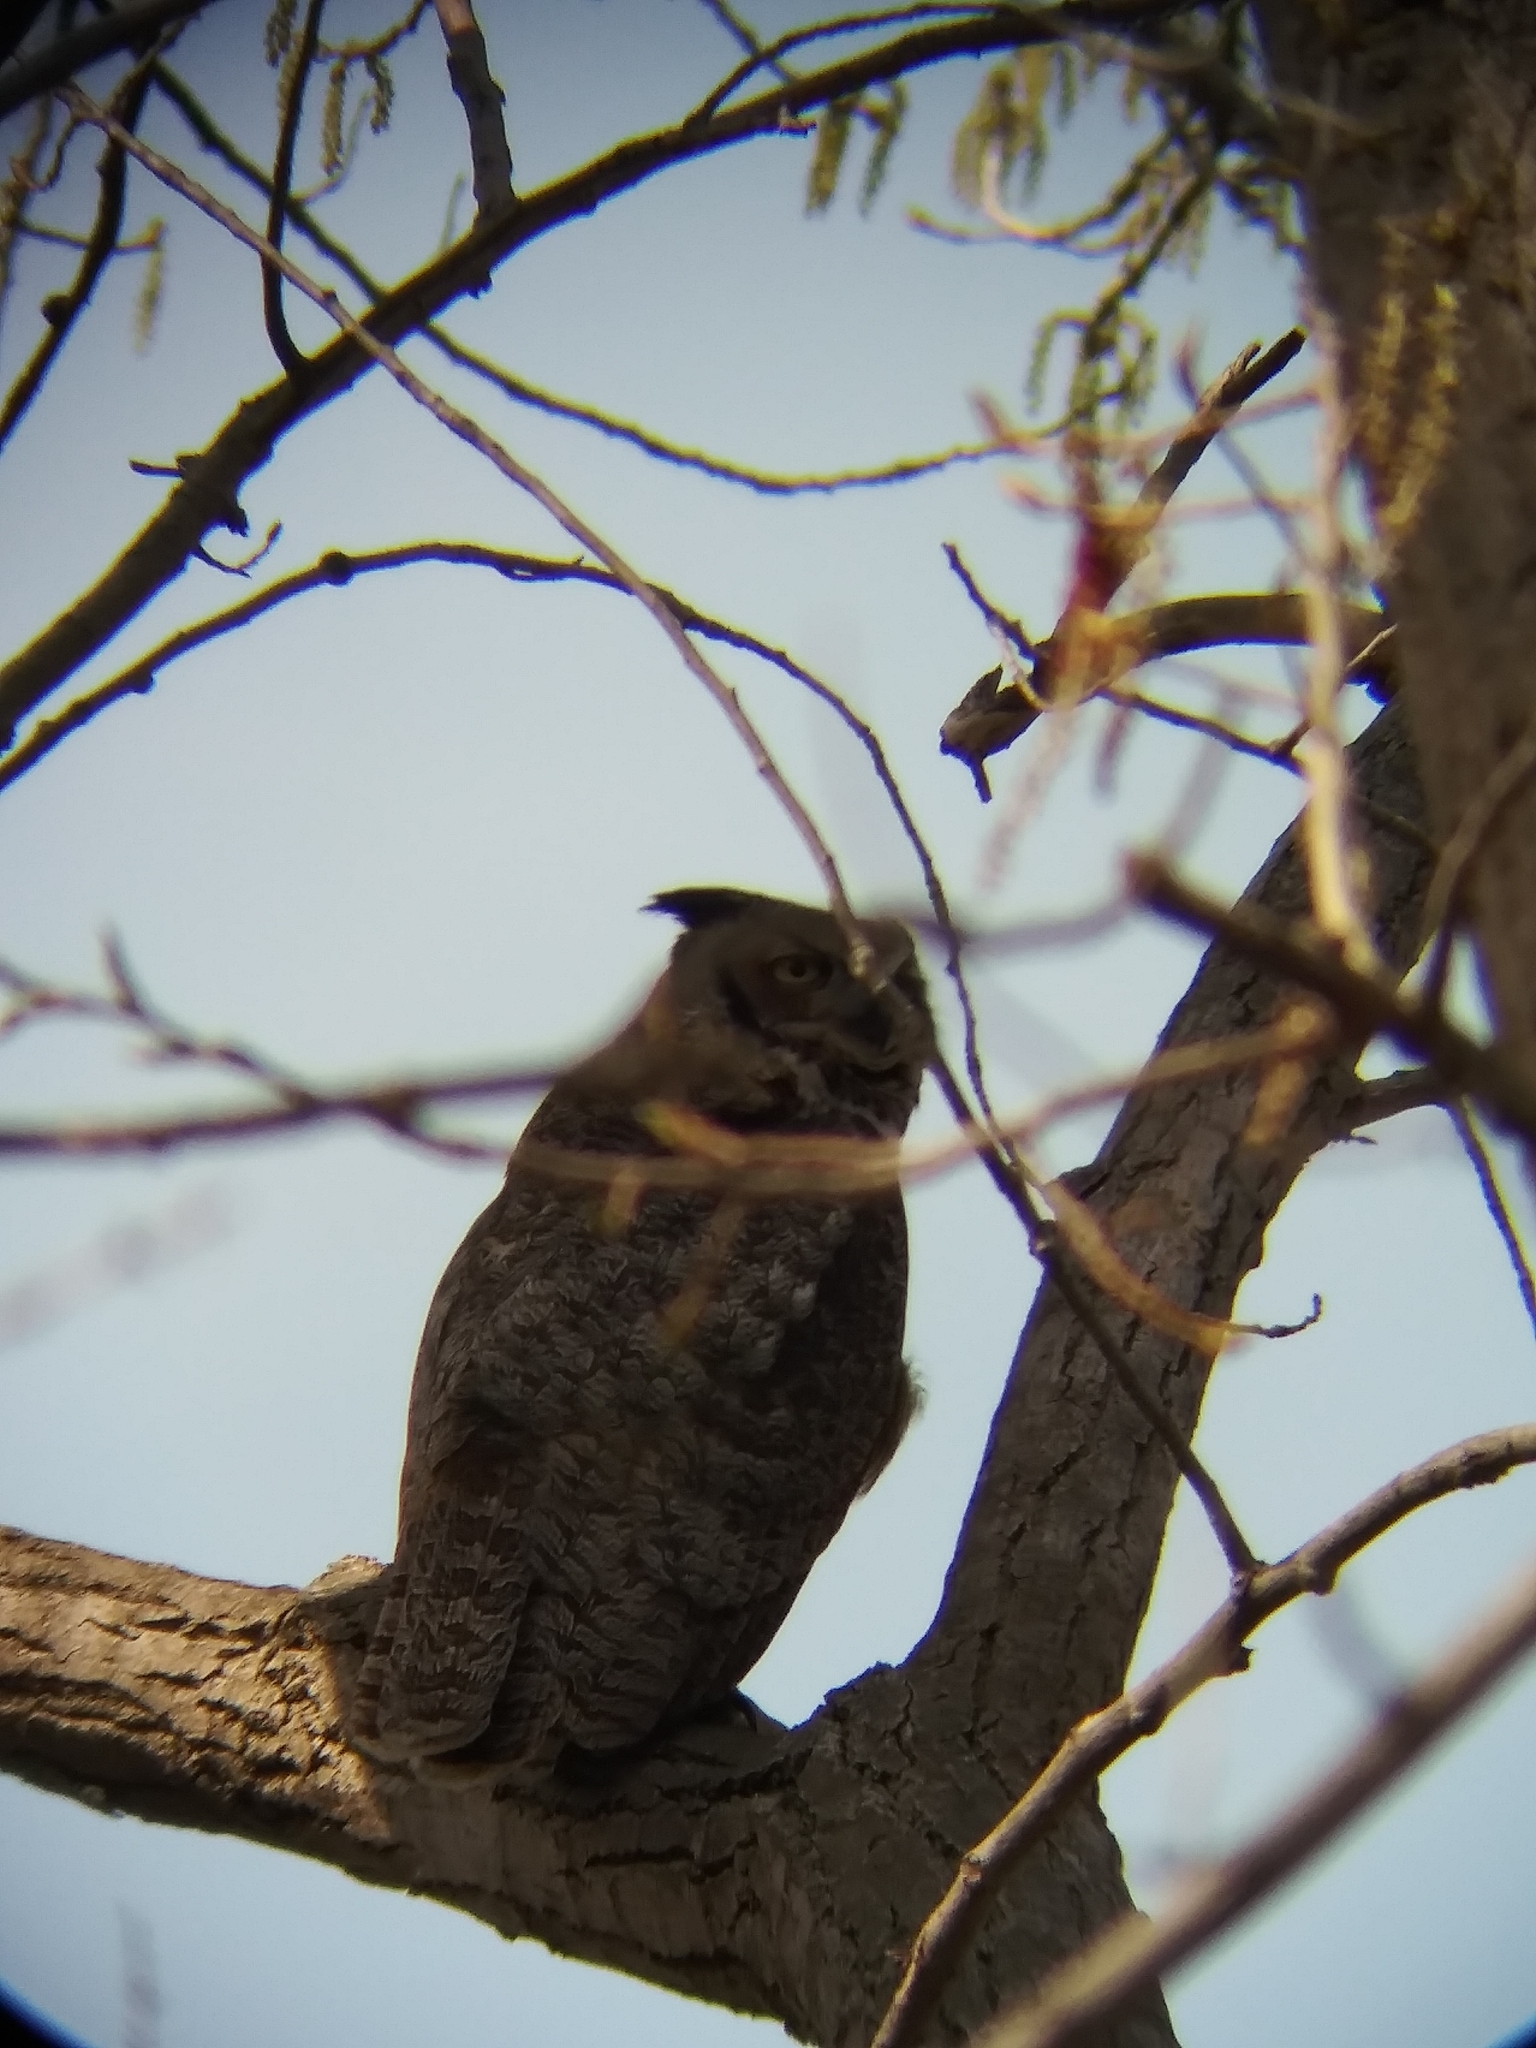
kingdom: Animalia
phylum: Chordata
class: Aves
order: Strigiformes
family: Strigidae
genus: Bubo
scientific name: Bubo virginianus
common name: Great horned owl
